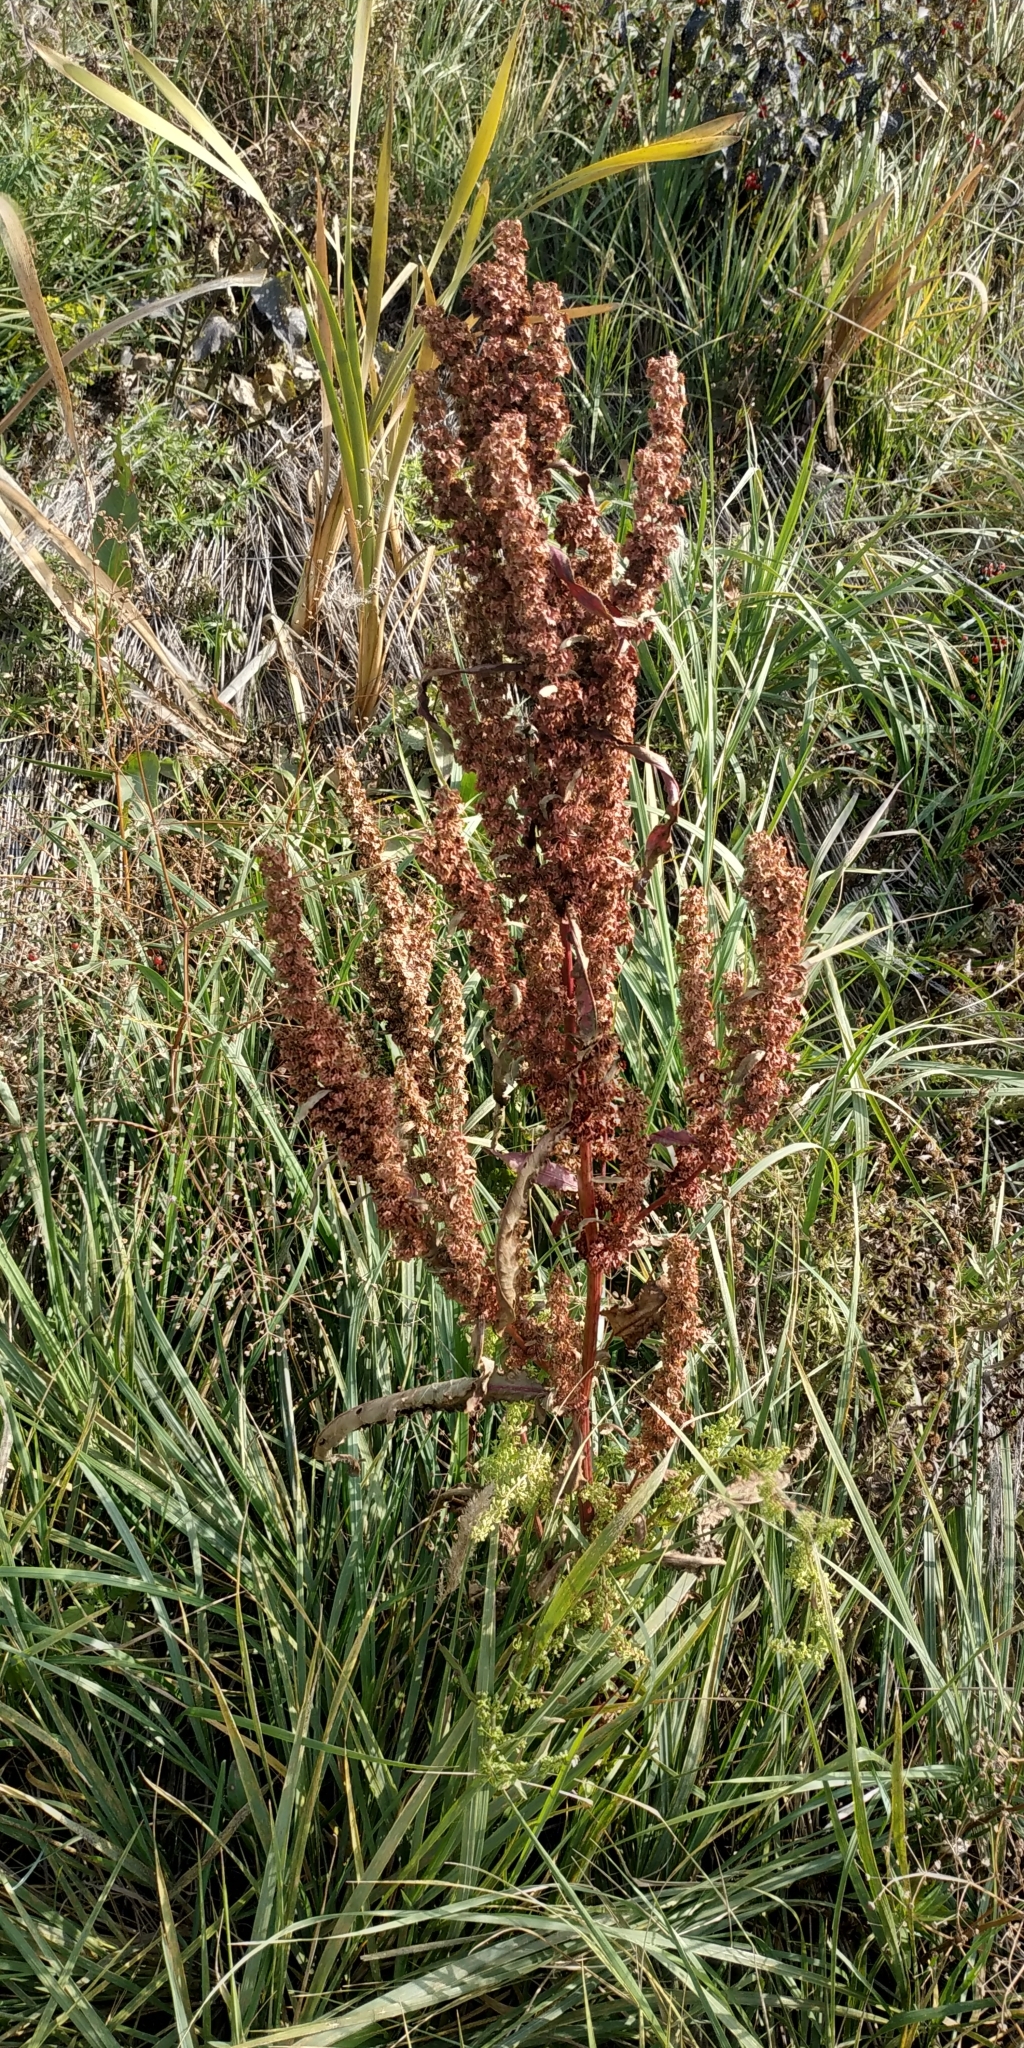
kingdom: Plantae
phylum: Tracheophyta
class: Magnoliopsida
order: Caryophyllales
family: Polygonaceae
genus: Rumex
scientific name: Rumex stenophyllus
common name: Narrowleaf dock
